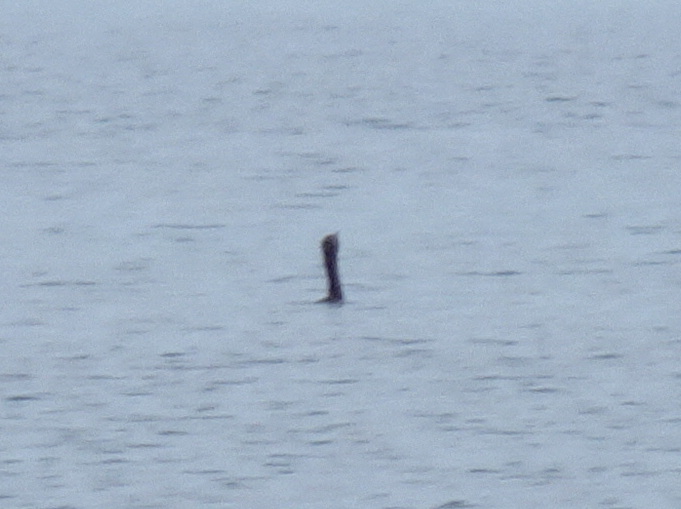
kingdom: Animalia
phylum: Chordata
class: Aves
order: Suliformes
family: Phalacrocoracidae
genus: Phalacrocorax
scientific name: Phalacrocorax auritus
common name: Double-crested cormorant
